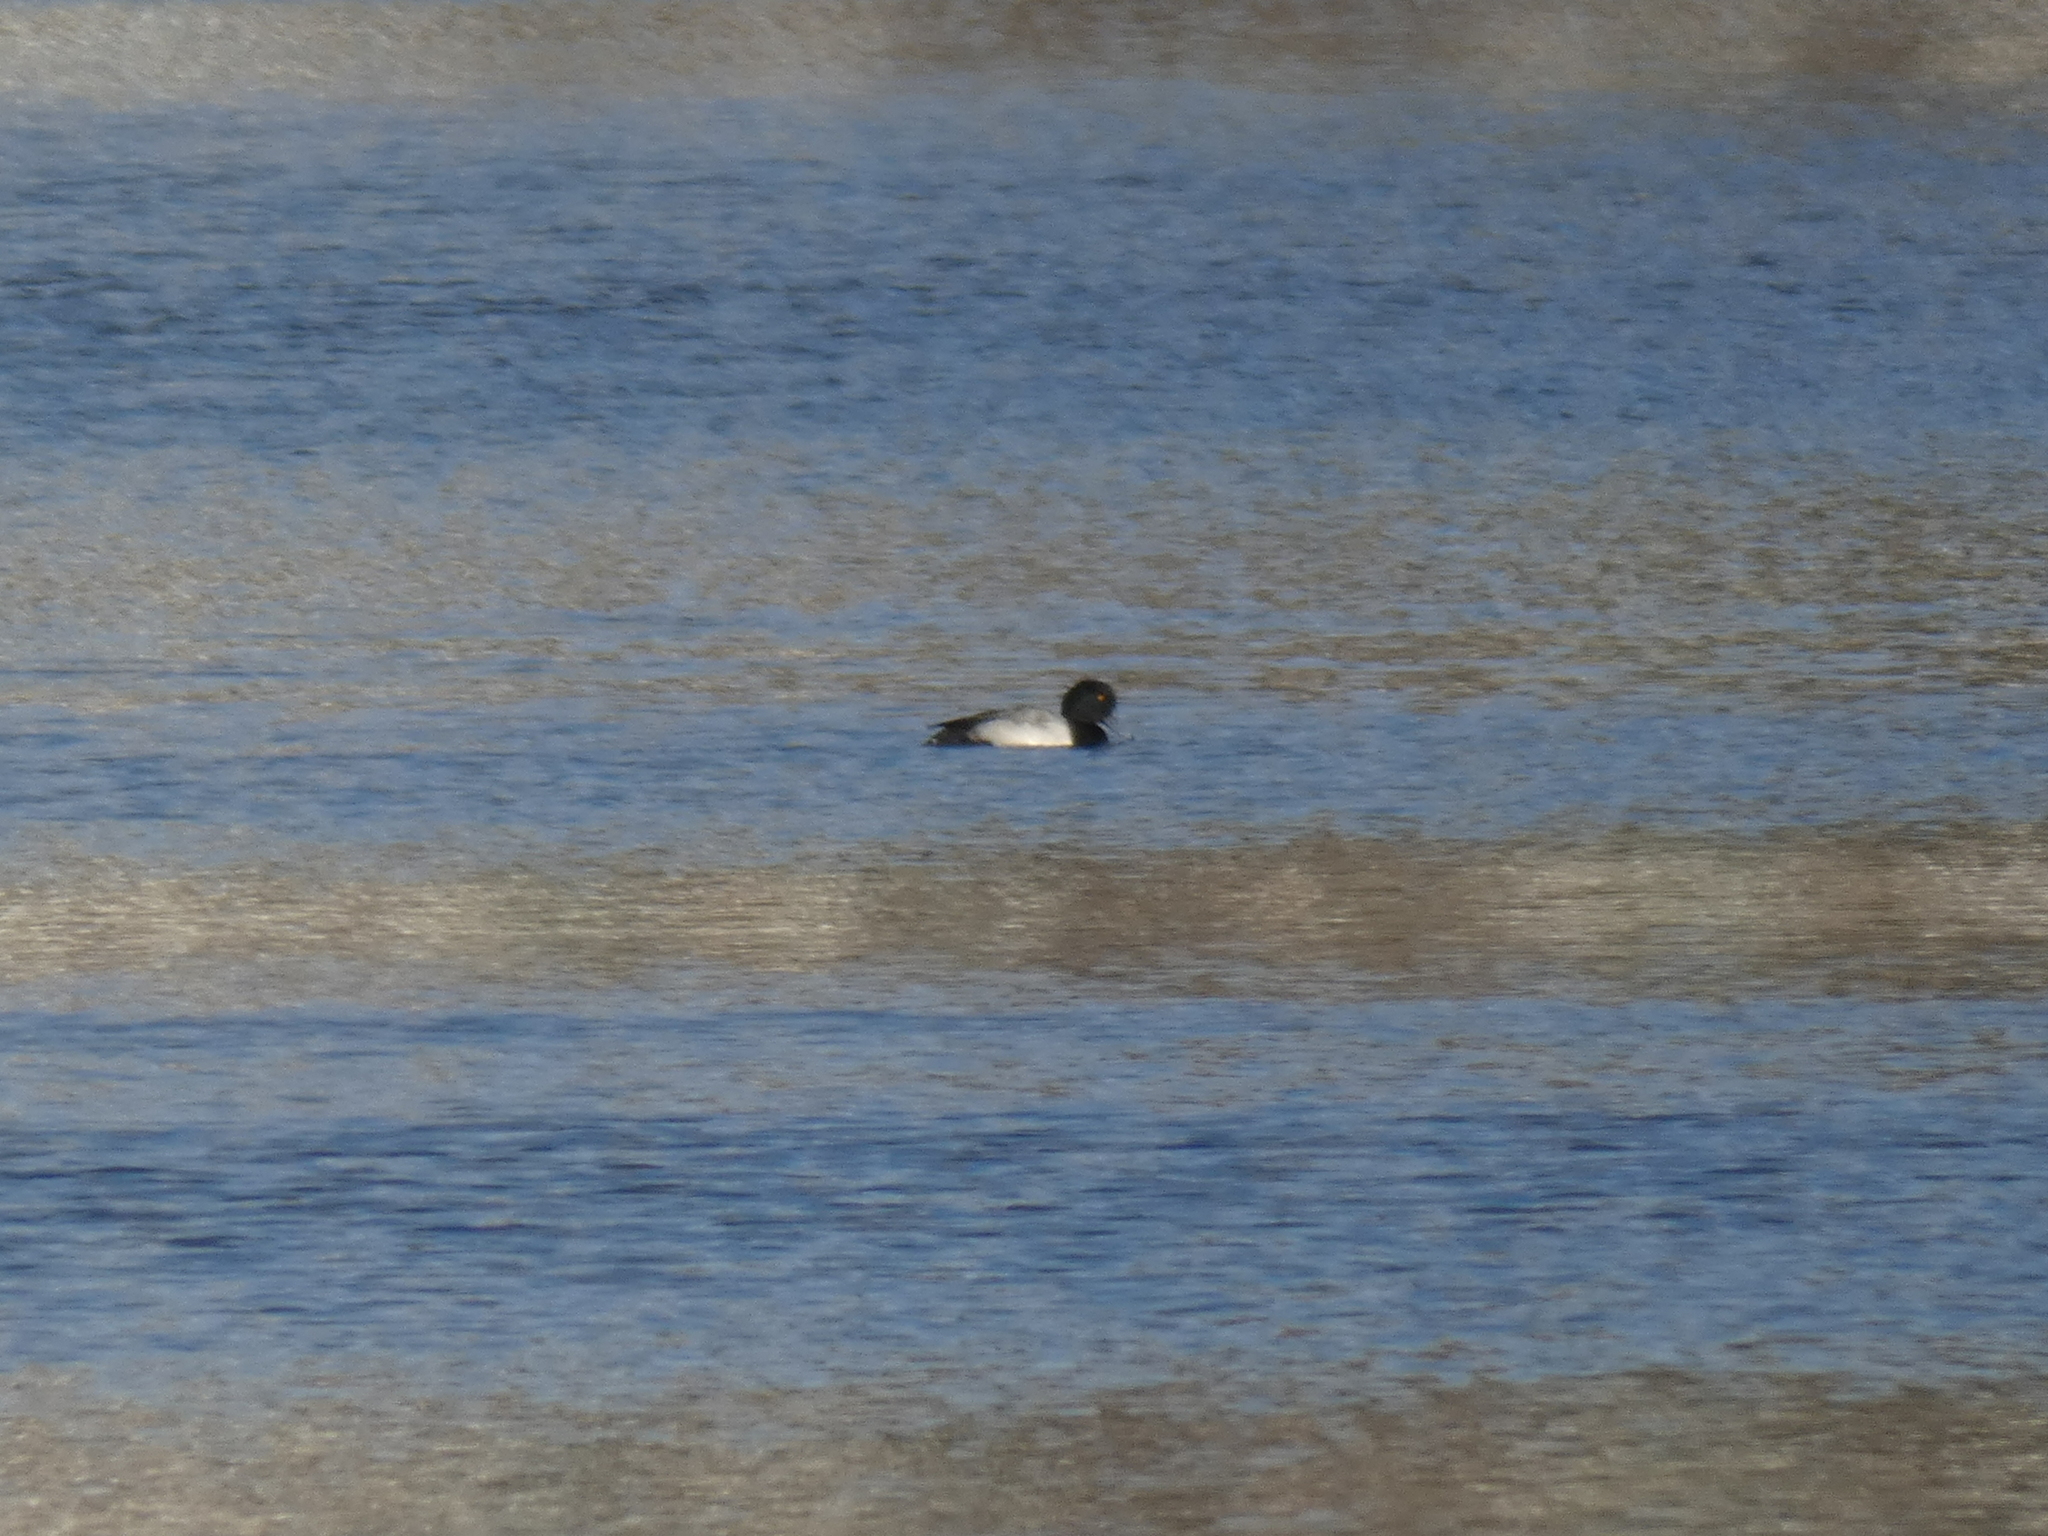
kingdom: Animalia
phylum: Chordata
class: Aves
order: Anseriformes
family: Anatidae
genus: Aythya
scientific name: Aythya marila
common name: Greater scaup
